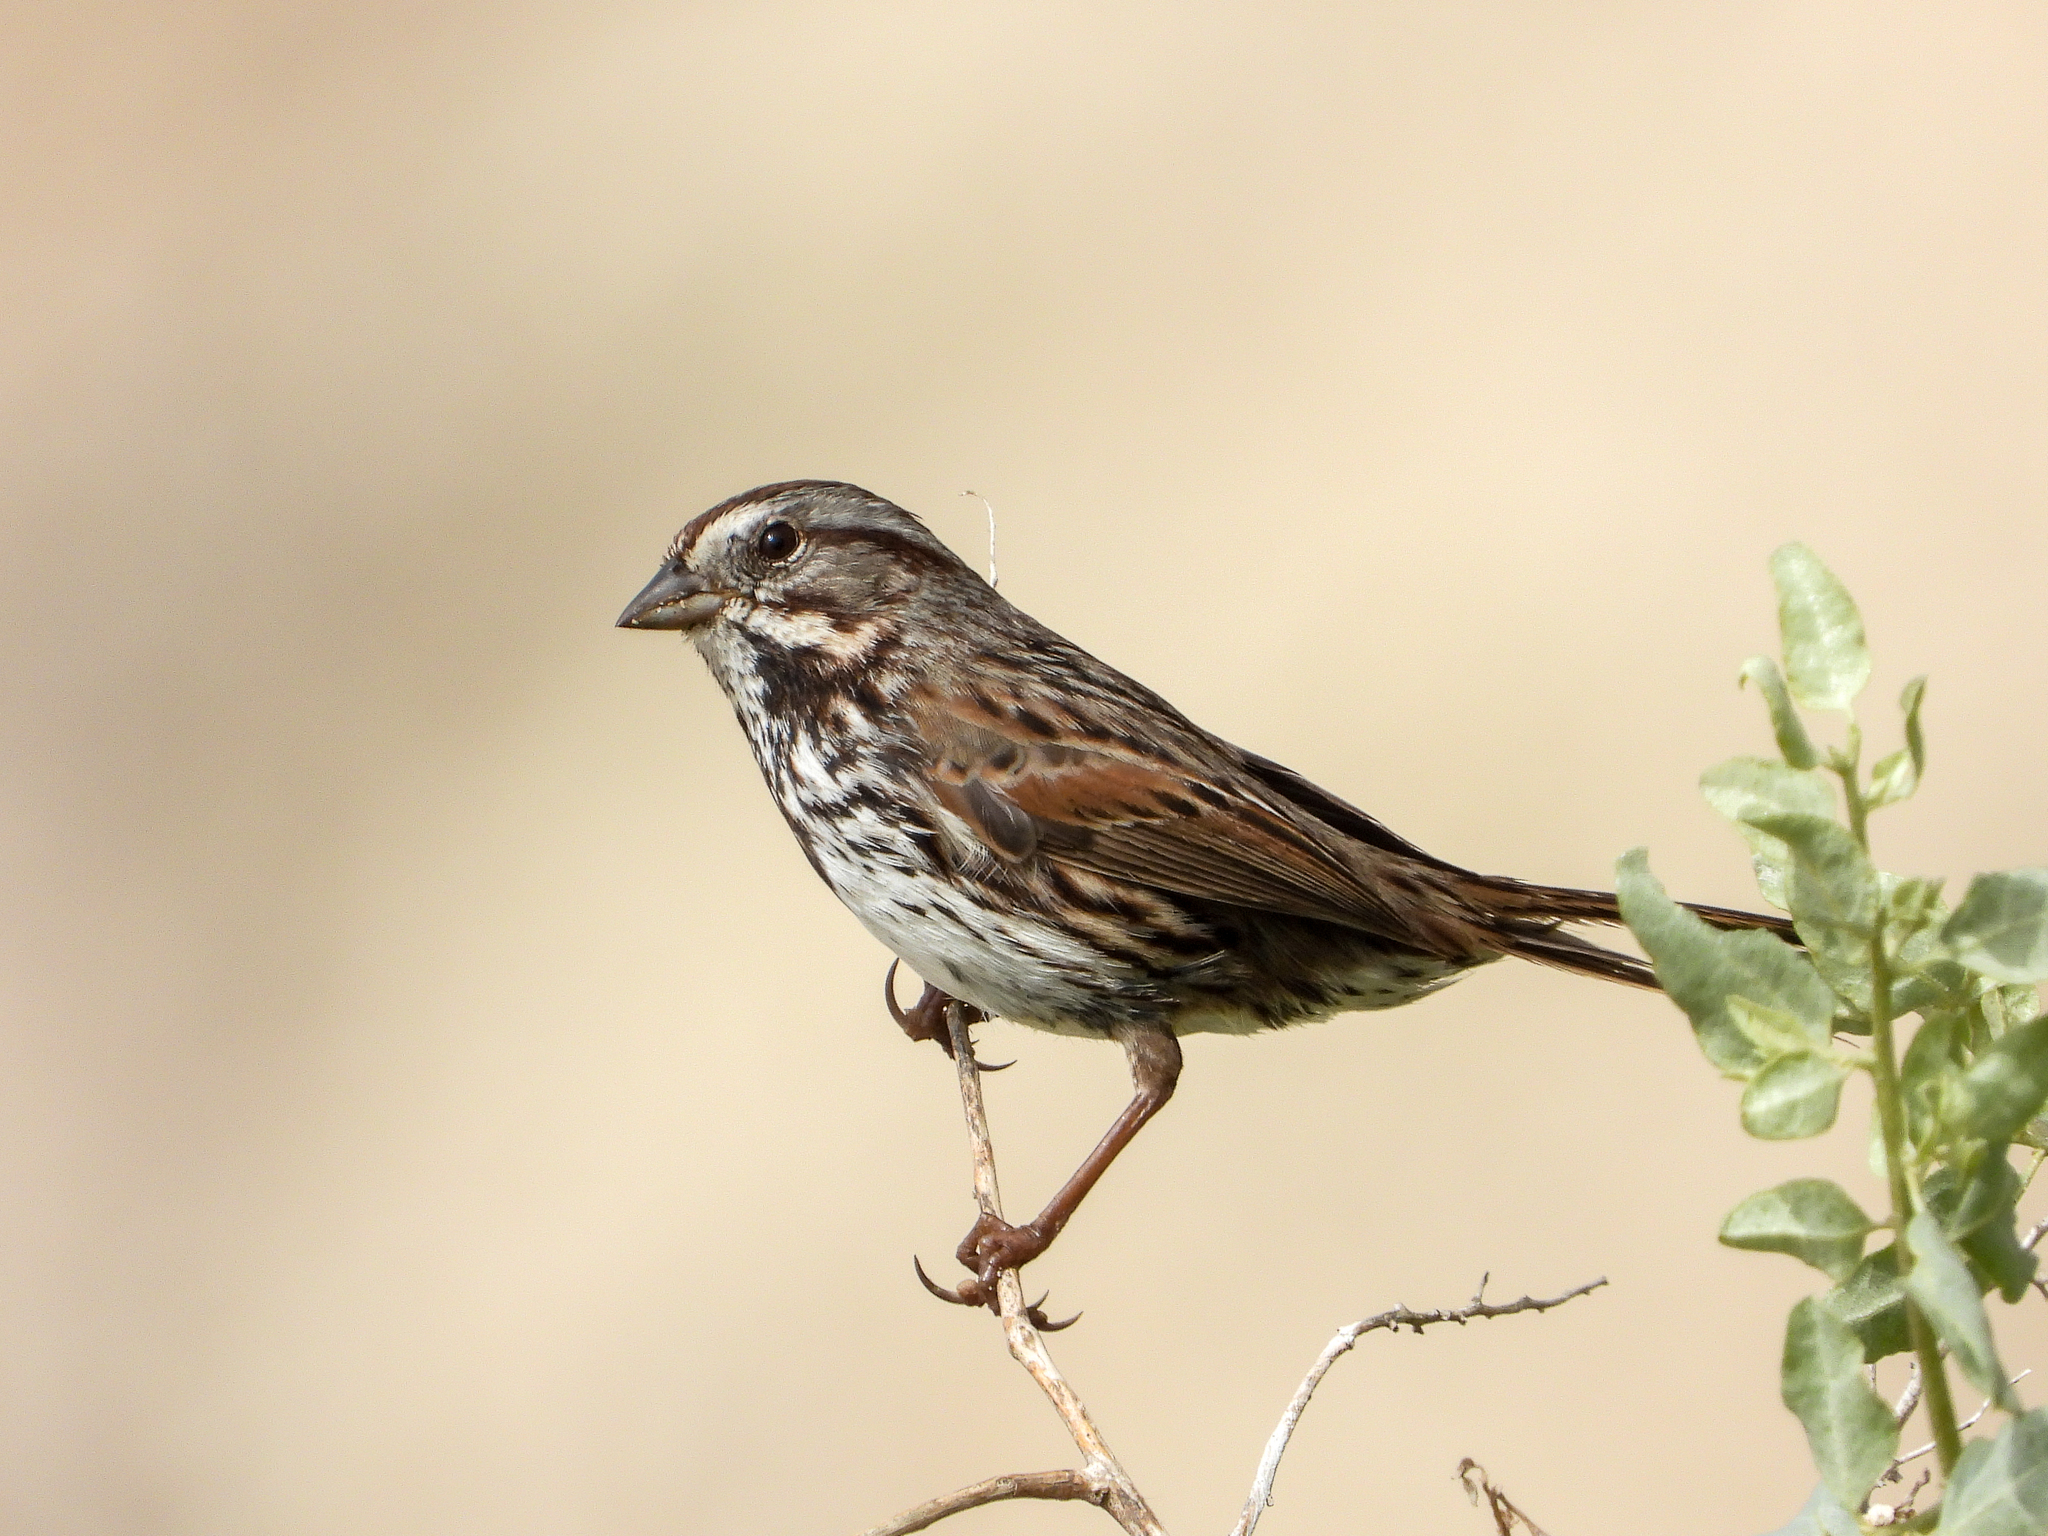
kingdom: Animalia
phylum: Chordata
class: Aves
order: Passeriformes
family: Passerellidae
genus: Melospiza
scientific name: Melospiza melodia
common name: Song sparrow
